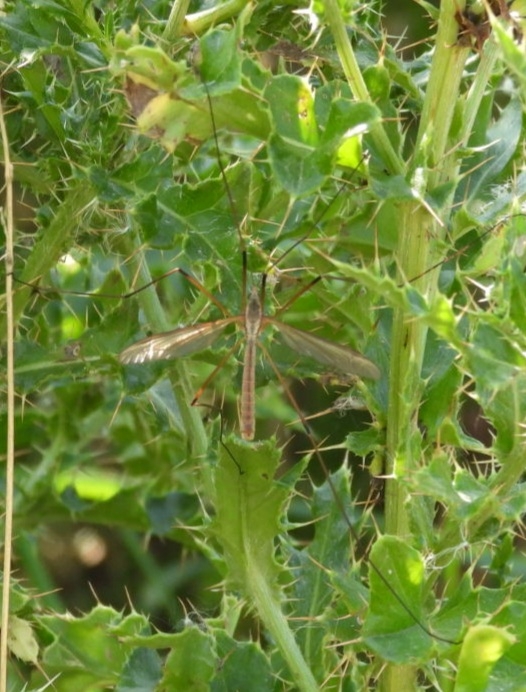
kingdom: Animalia
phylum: Arthropoda
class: Insecta
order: Diptera
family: Tipulidae
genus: Tipula
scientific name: Tipula paludosa
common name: European cranefly
